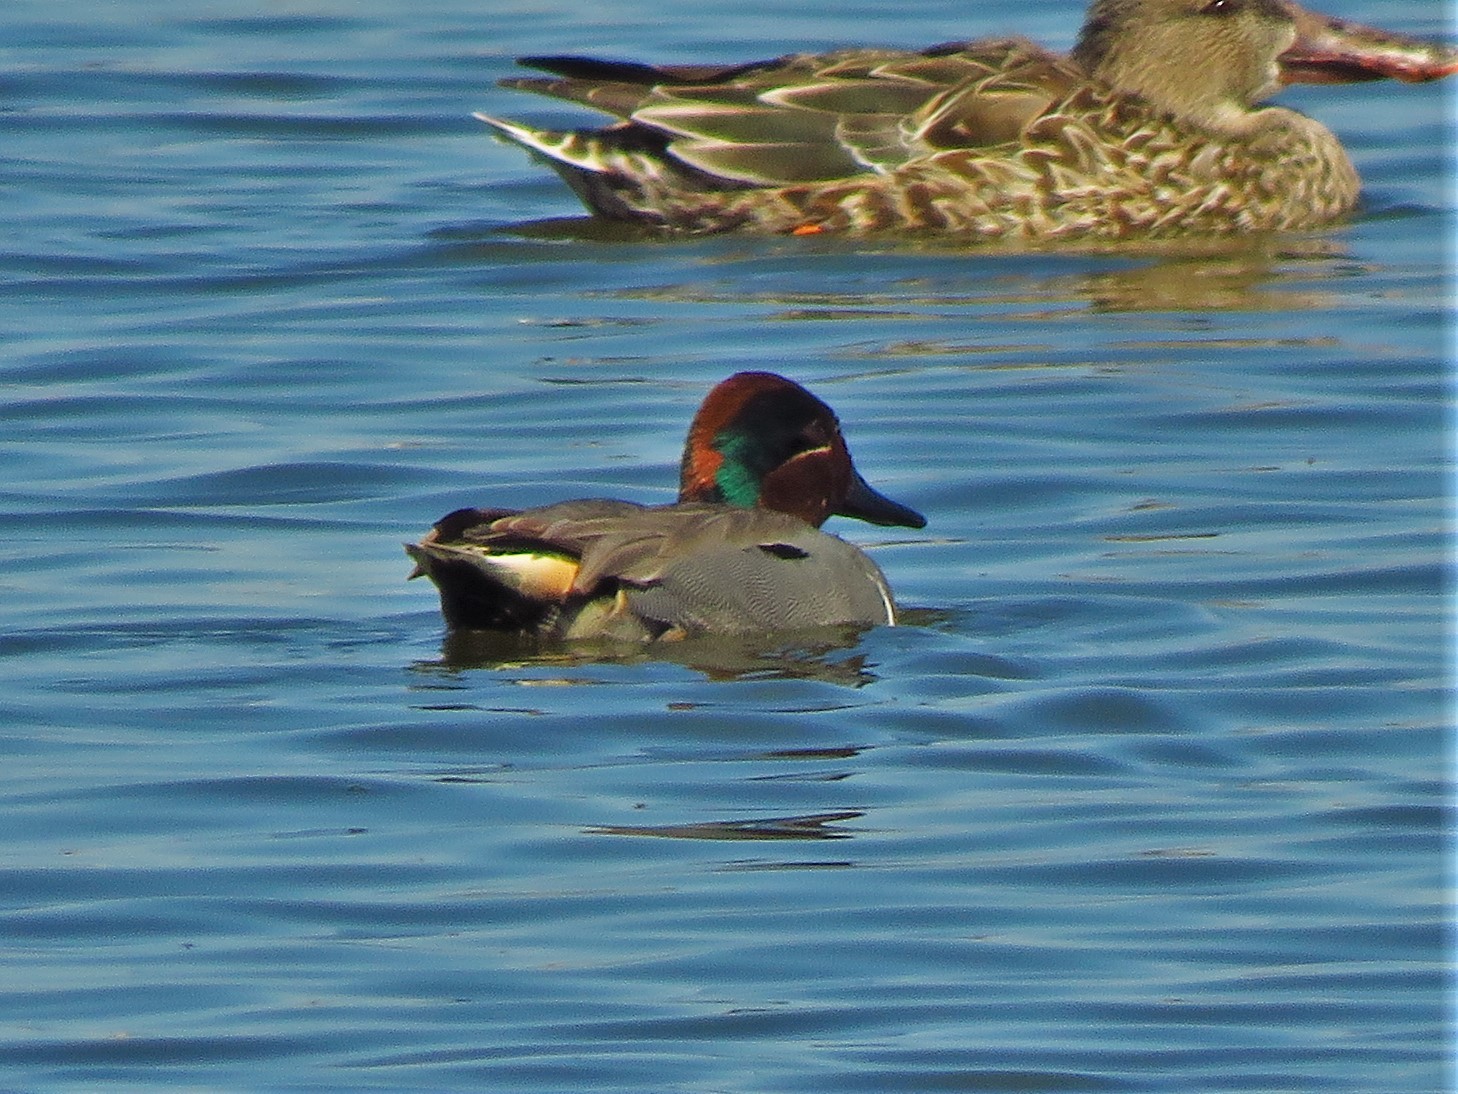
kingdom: Animalia
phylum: Chordata
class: Aves
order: Anseriformes
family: Anatidae
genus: Anas
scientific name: Anas crecca
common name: Eurasian teal
